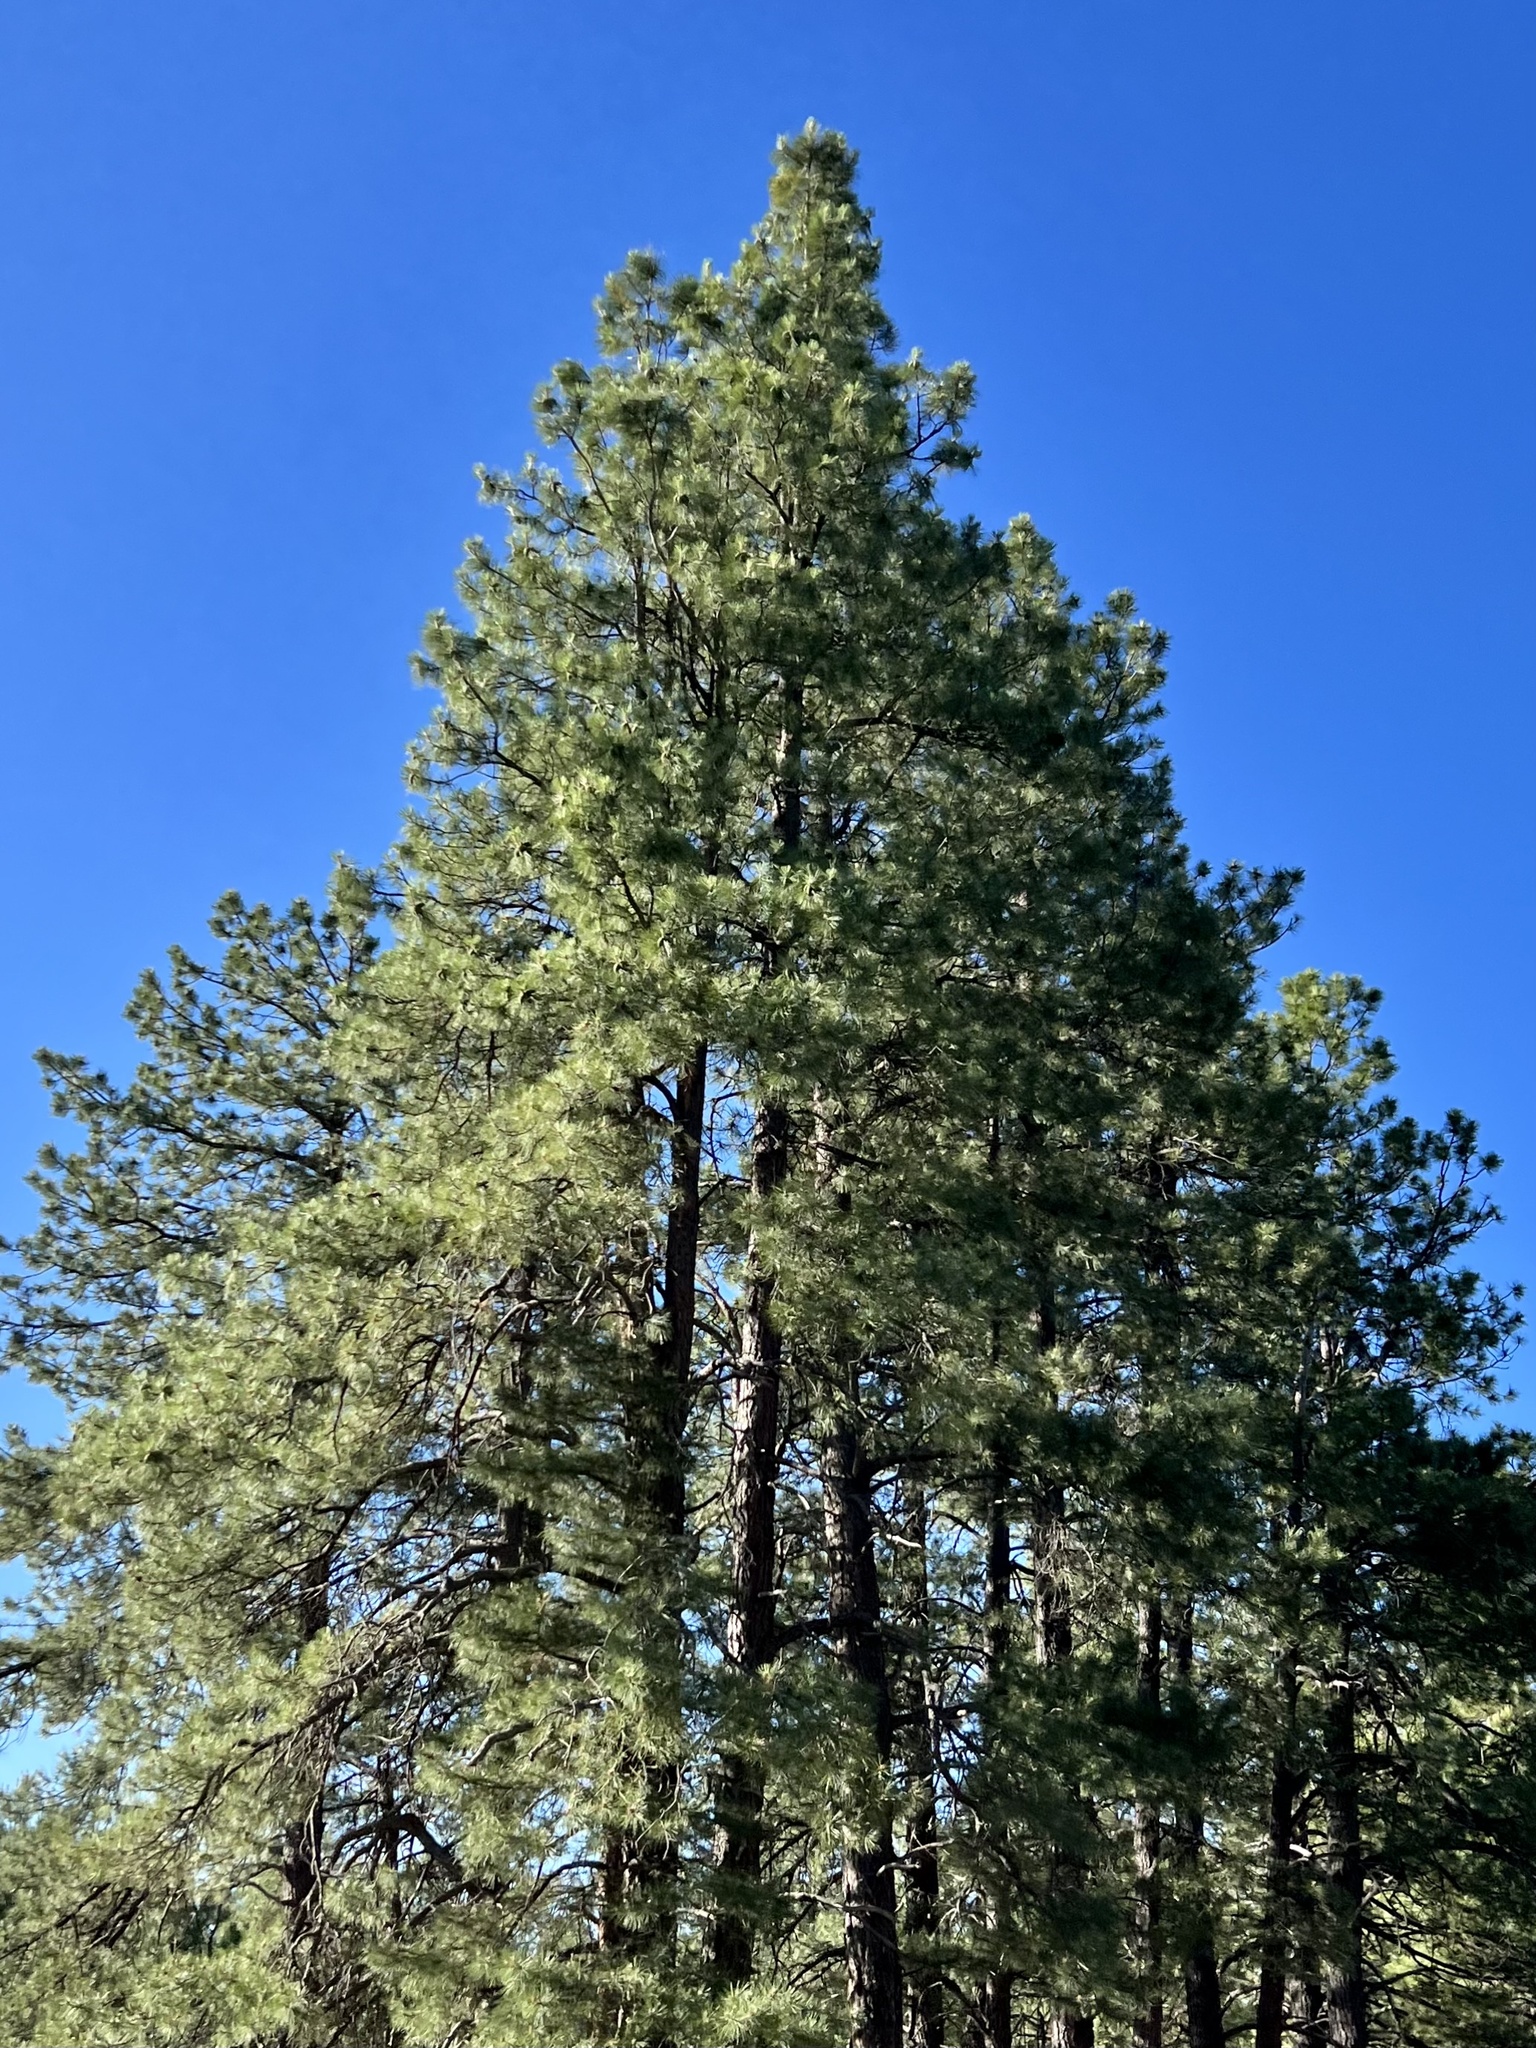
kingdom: Plantae
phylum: Tracheophyta
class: Pinopsida
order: Pinales
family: Pinaceae
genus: Pinus
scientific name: Pinus ponderosa
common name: Western yellow-pine
